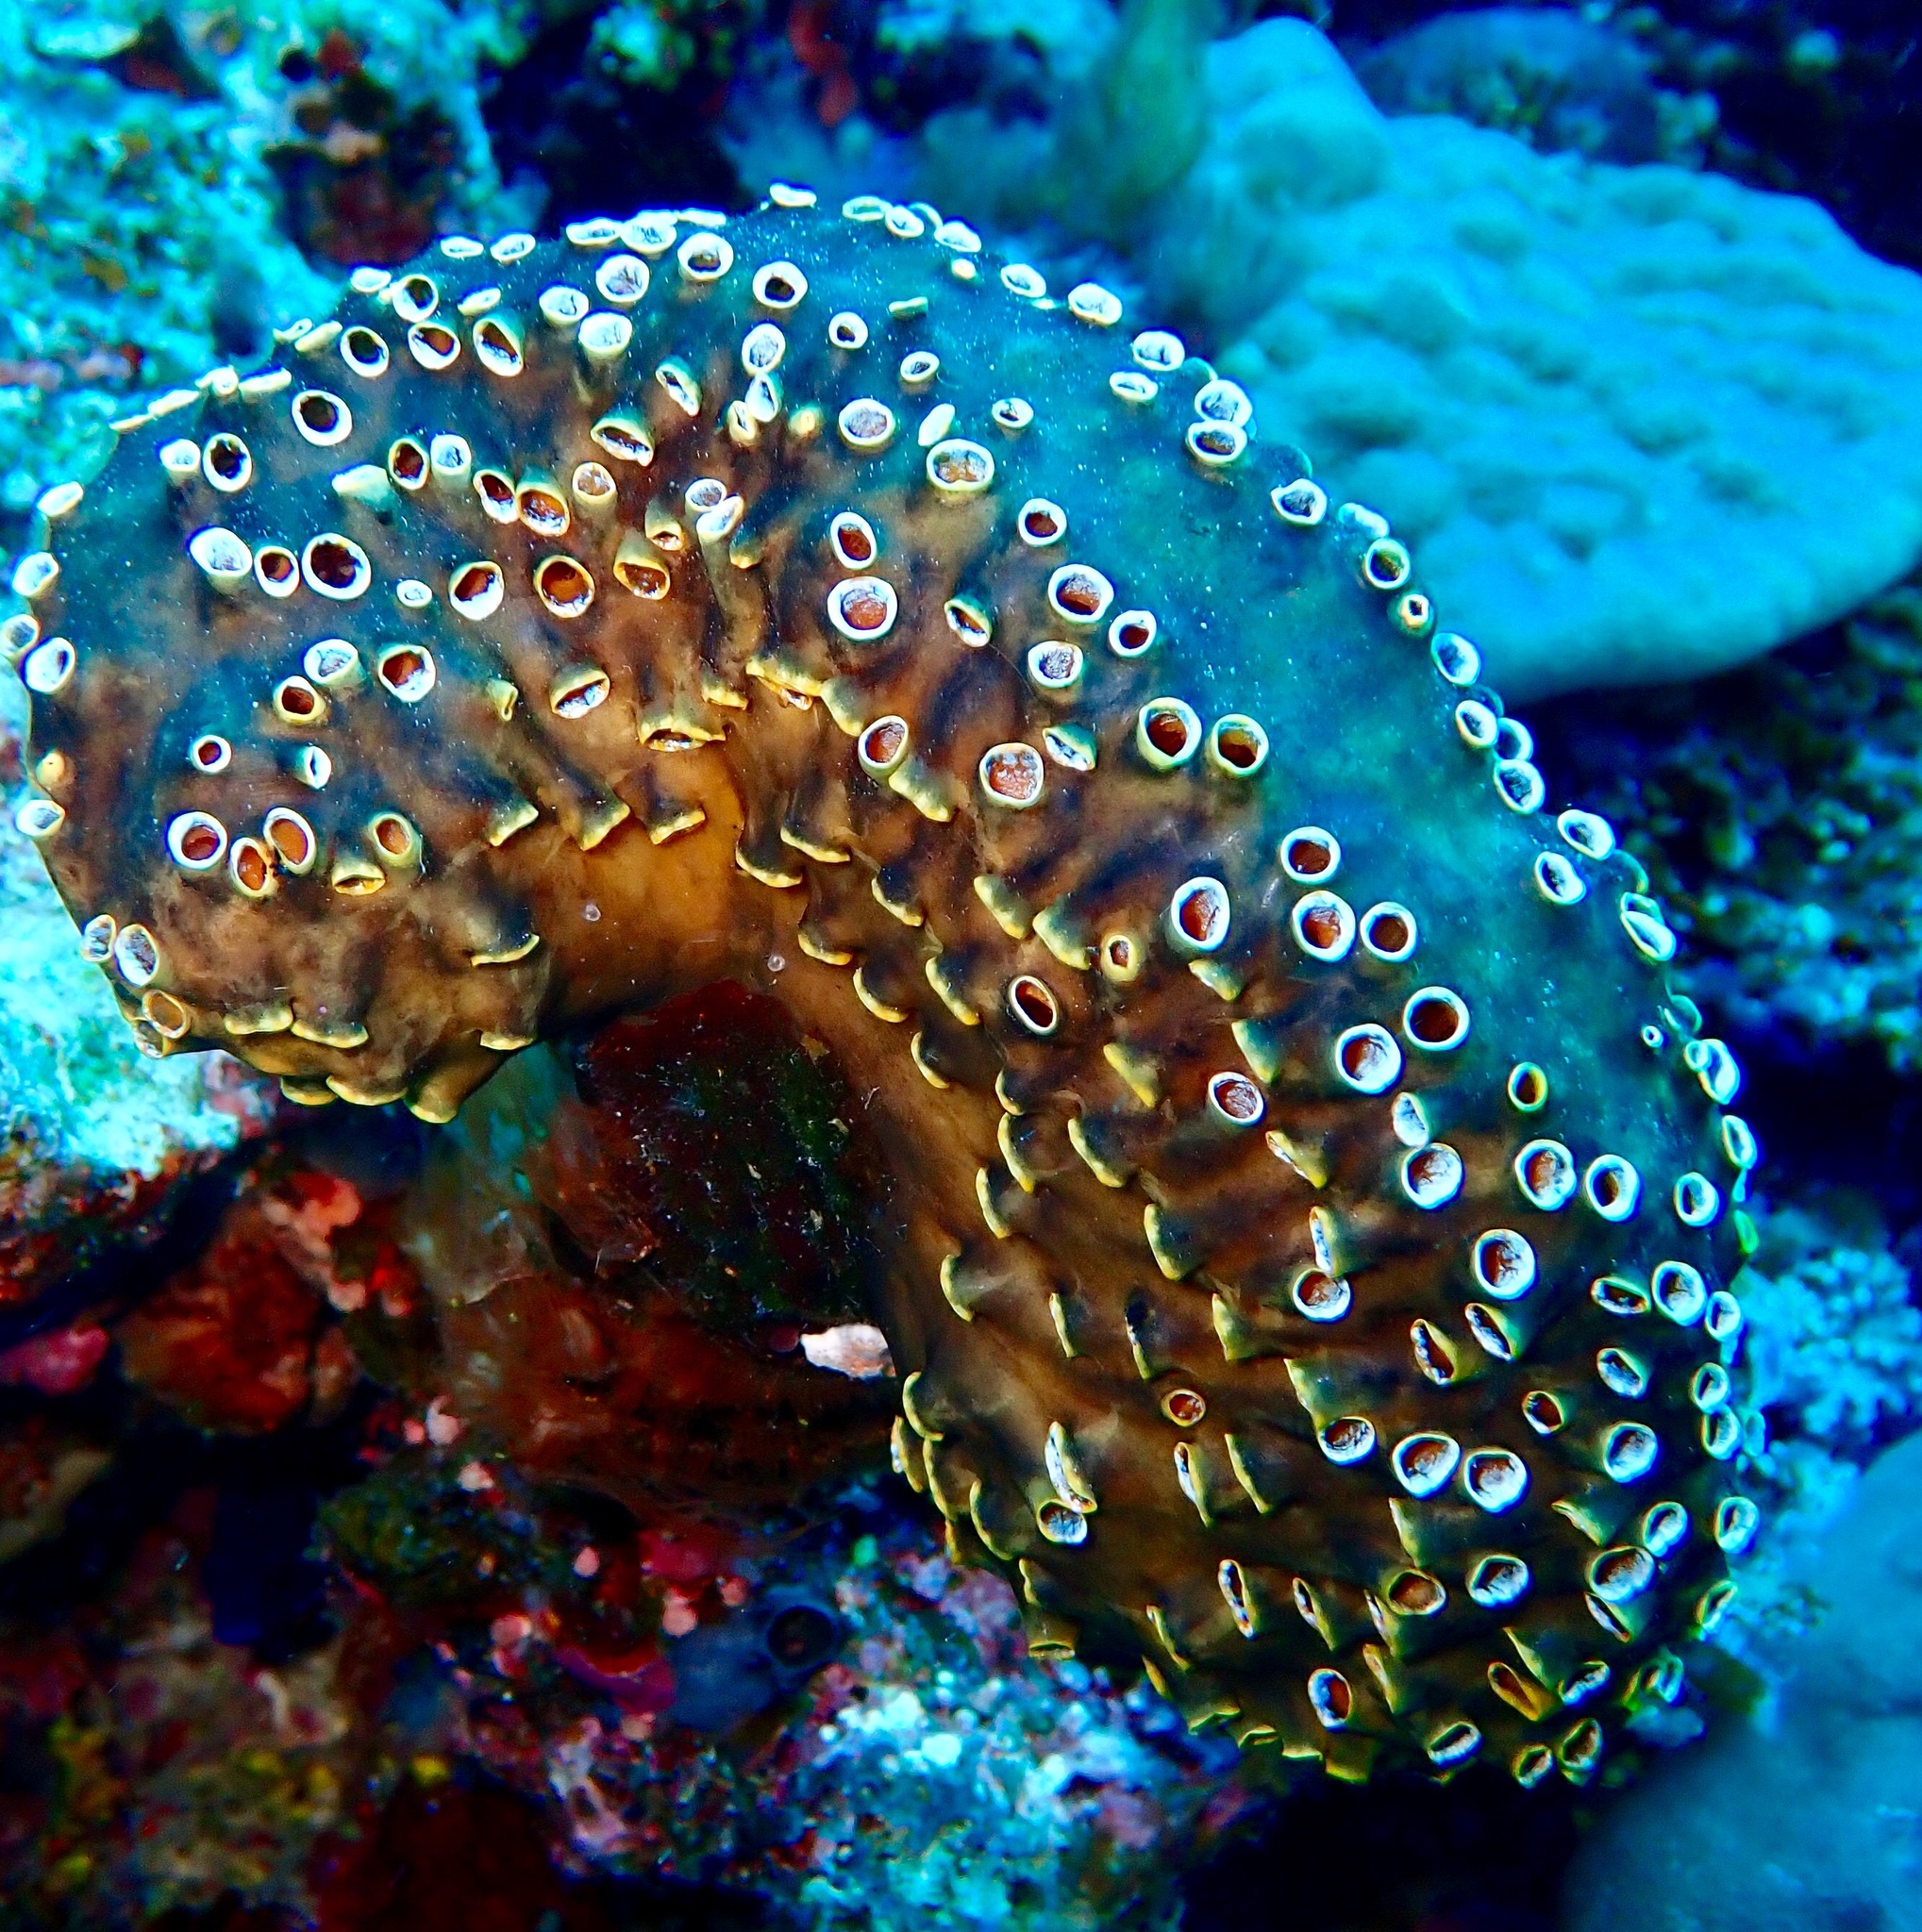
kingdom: Animalia
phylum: Chordata
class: Ascidiacea
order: Stolidobranchia
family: Styelidae
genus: Polyandrocarpa
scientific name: Polyandrocarpa polypora
